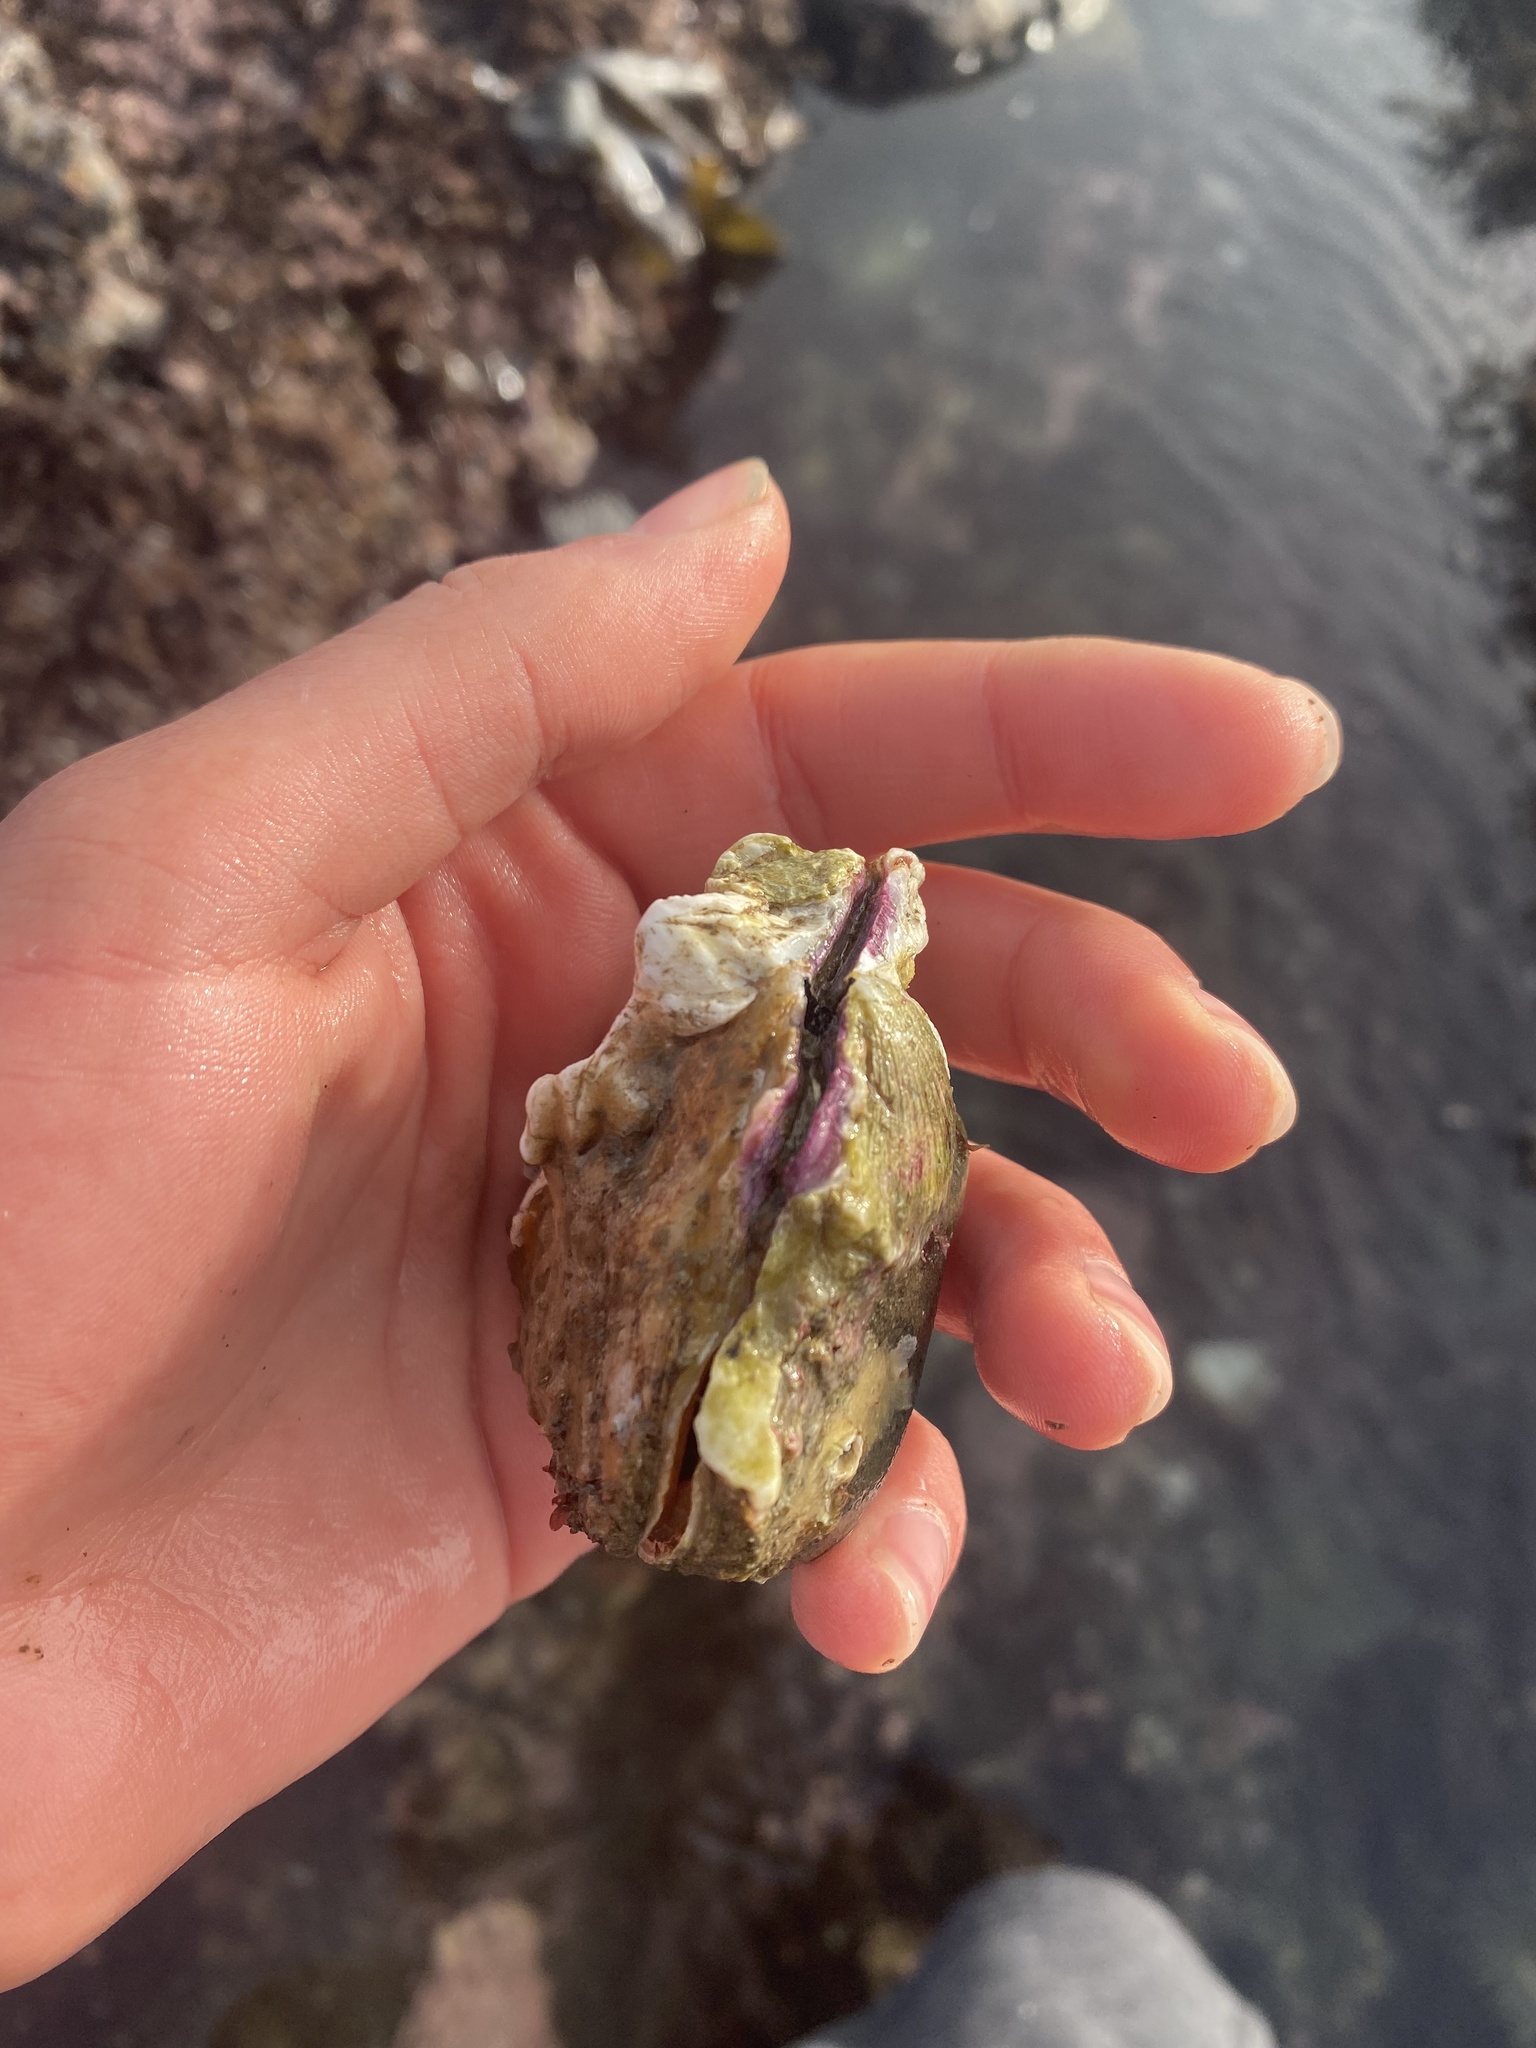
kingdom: Animalia
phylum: Mollusca
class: Bivalvia
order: Pectinida
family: Pectinidae
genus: Crassadoma
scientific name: Crassadoma gigantea
